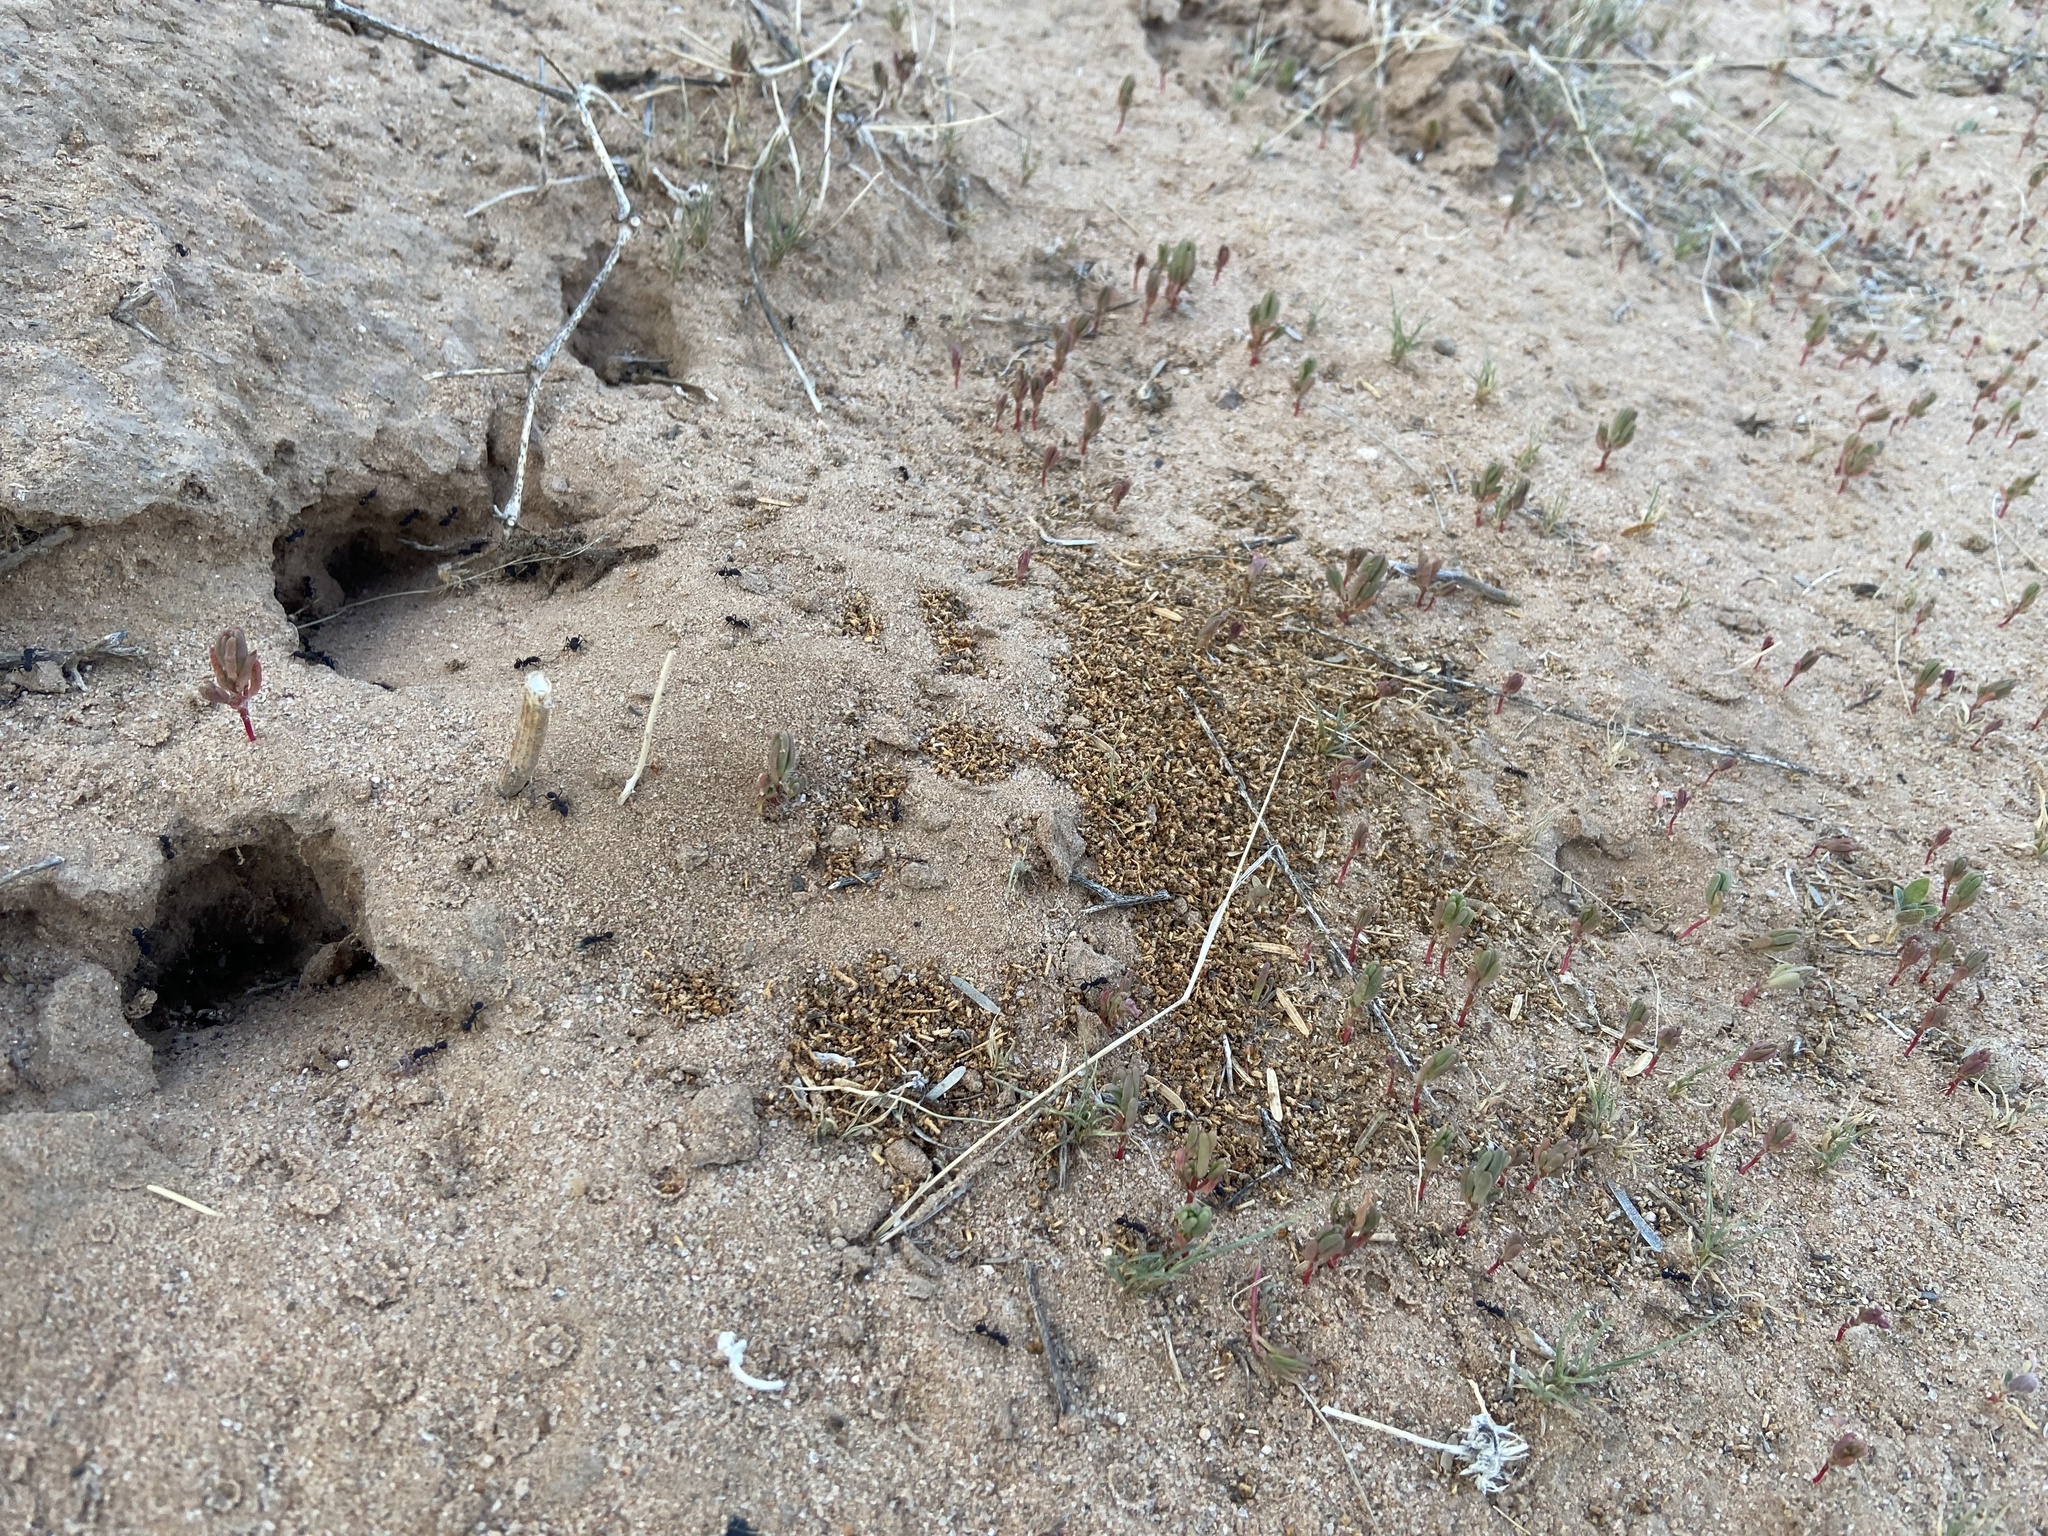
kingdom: Animalia
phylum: Arthropoda
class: Insecta
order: Hymenoptera
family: Formicidae
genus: Trachymyrmex
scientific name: Trachymyrmex smithi
